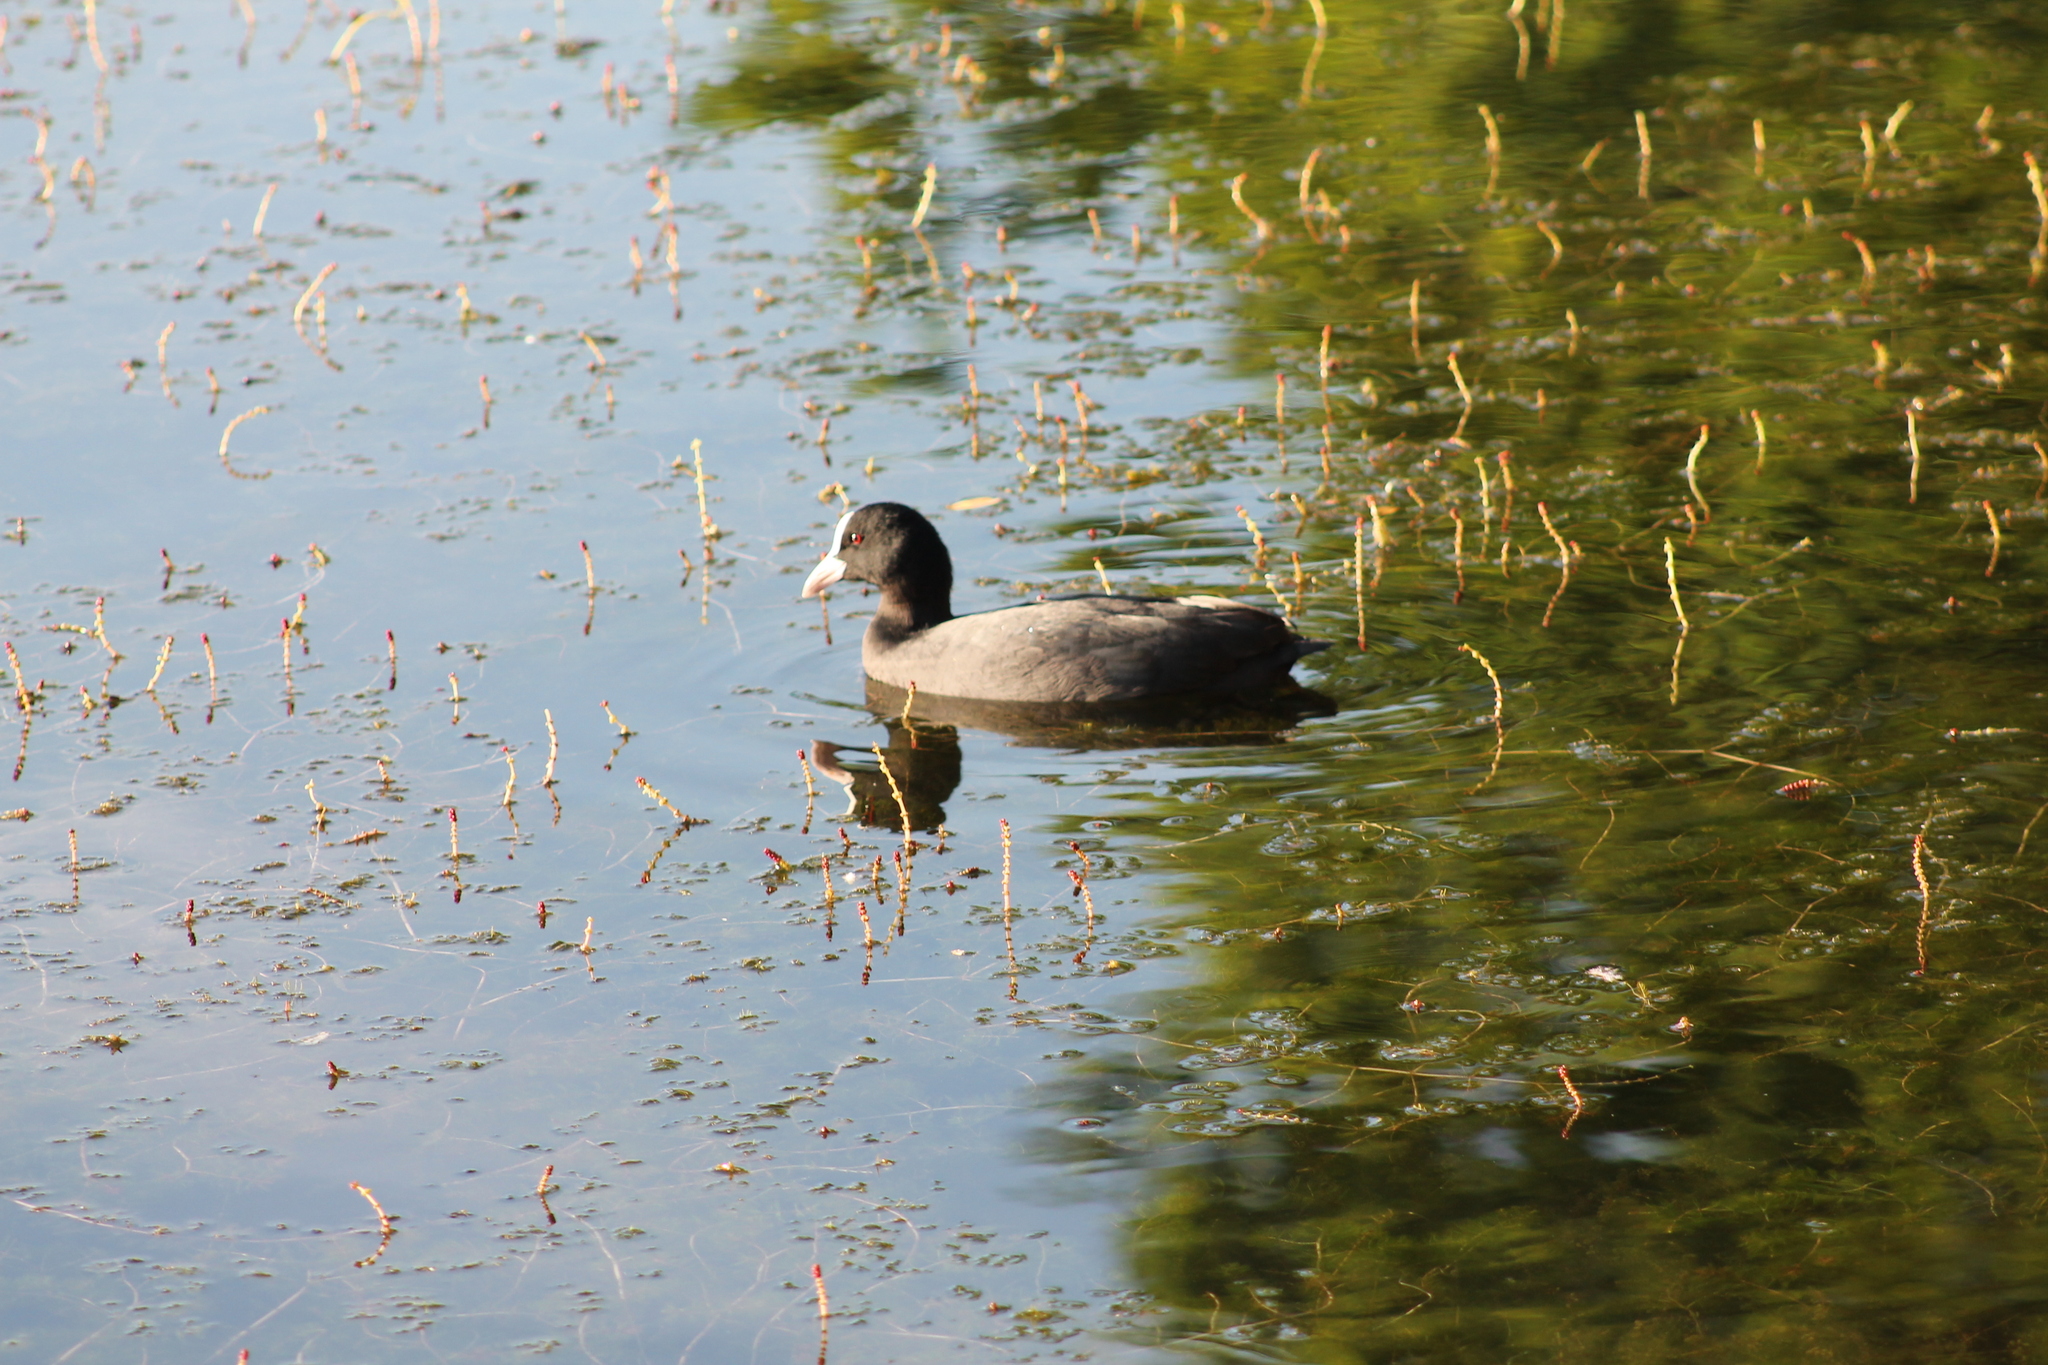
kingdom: Animalia
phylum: Chordata
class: Aves
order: Gruiformes
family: Rallidae
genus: Fulica
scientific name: Fulica atra
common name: Eurasian coot
